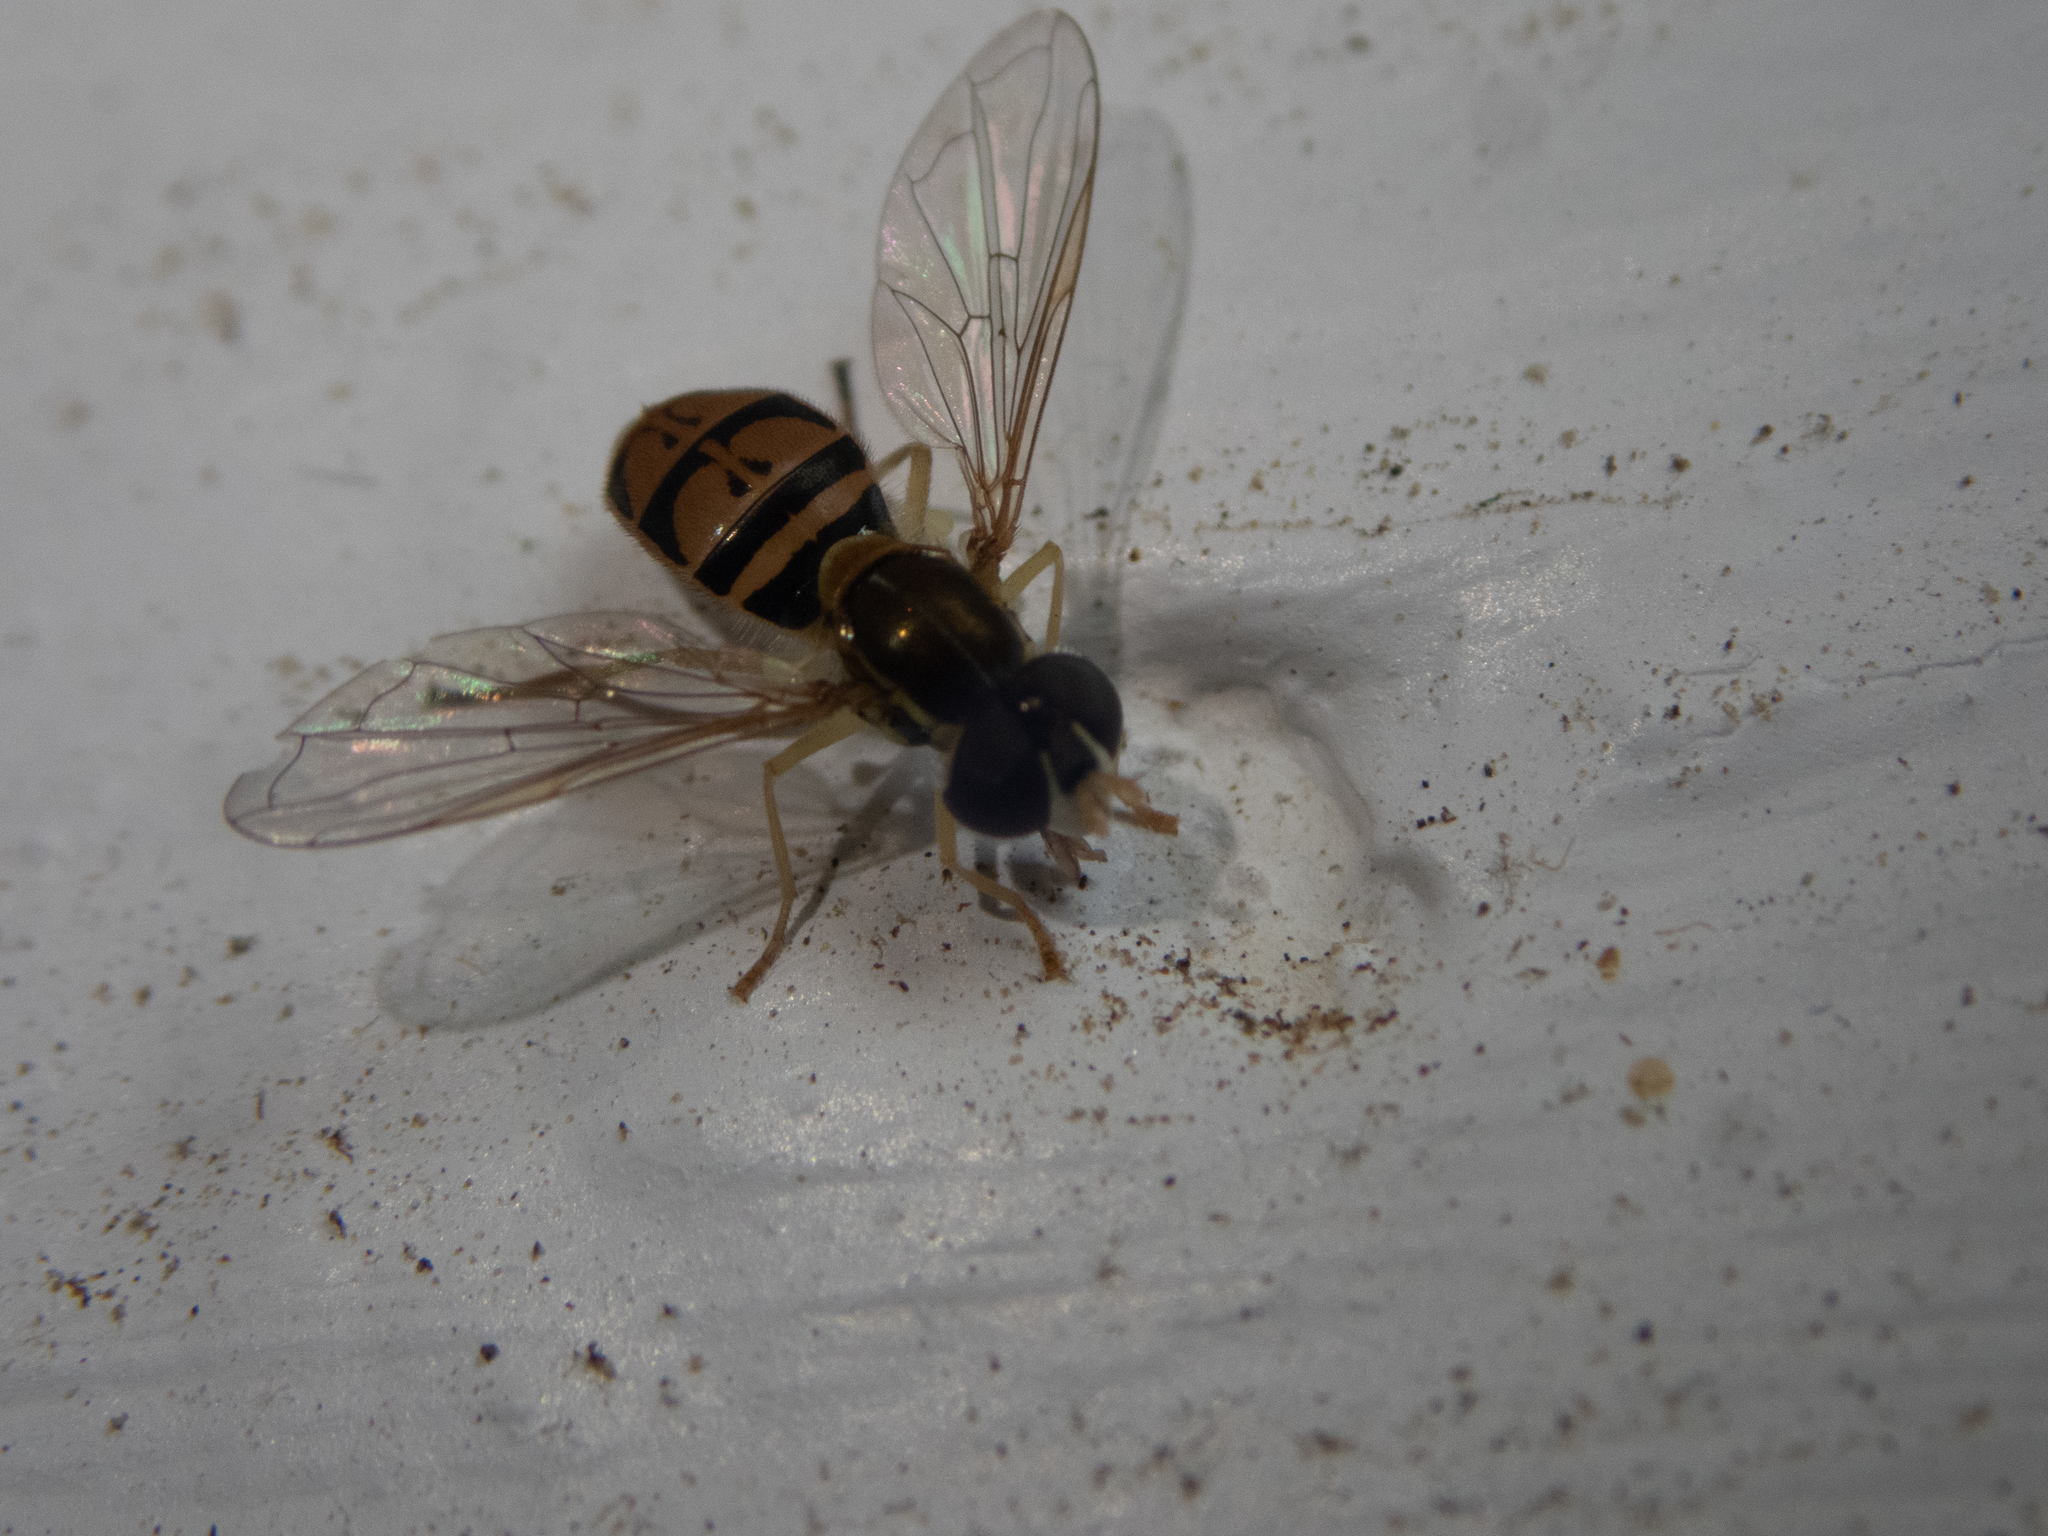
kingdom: Animalia
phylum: Arthropoda
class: Insecta
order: Diptera
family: Syrphidae
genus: Toxomerus
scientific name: Toxomerus marginatus
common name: Syrphid fly
